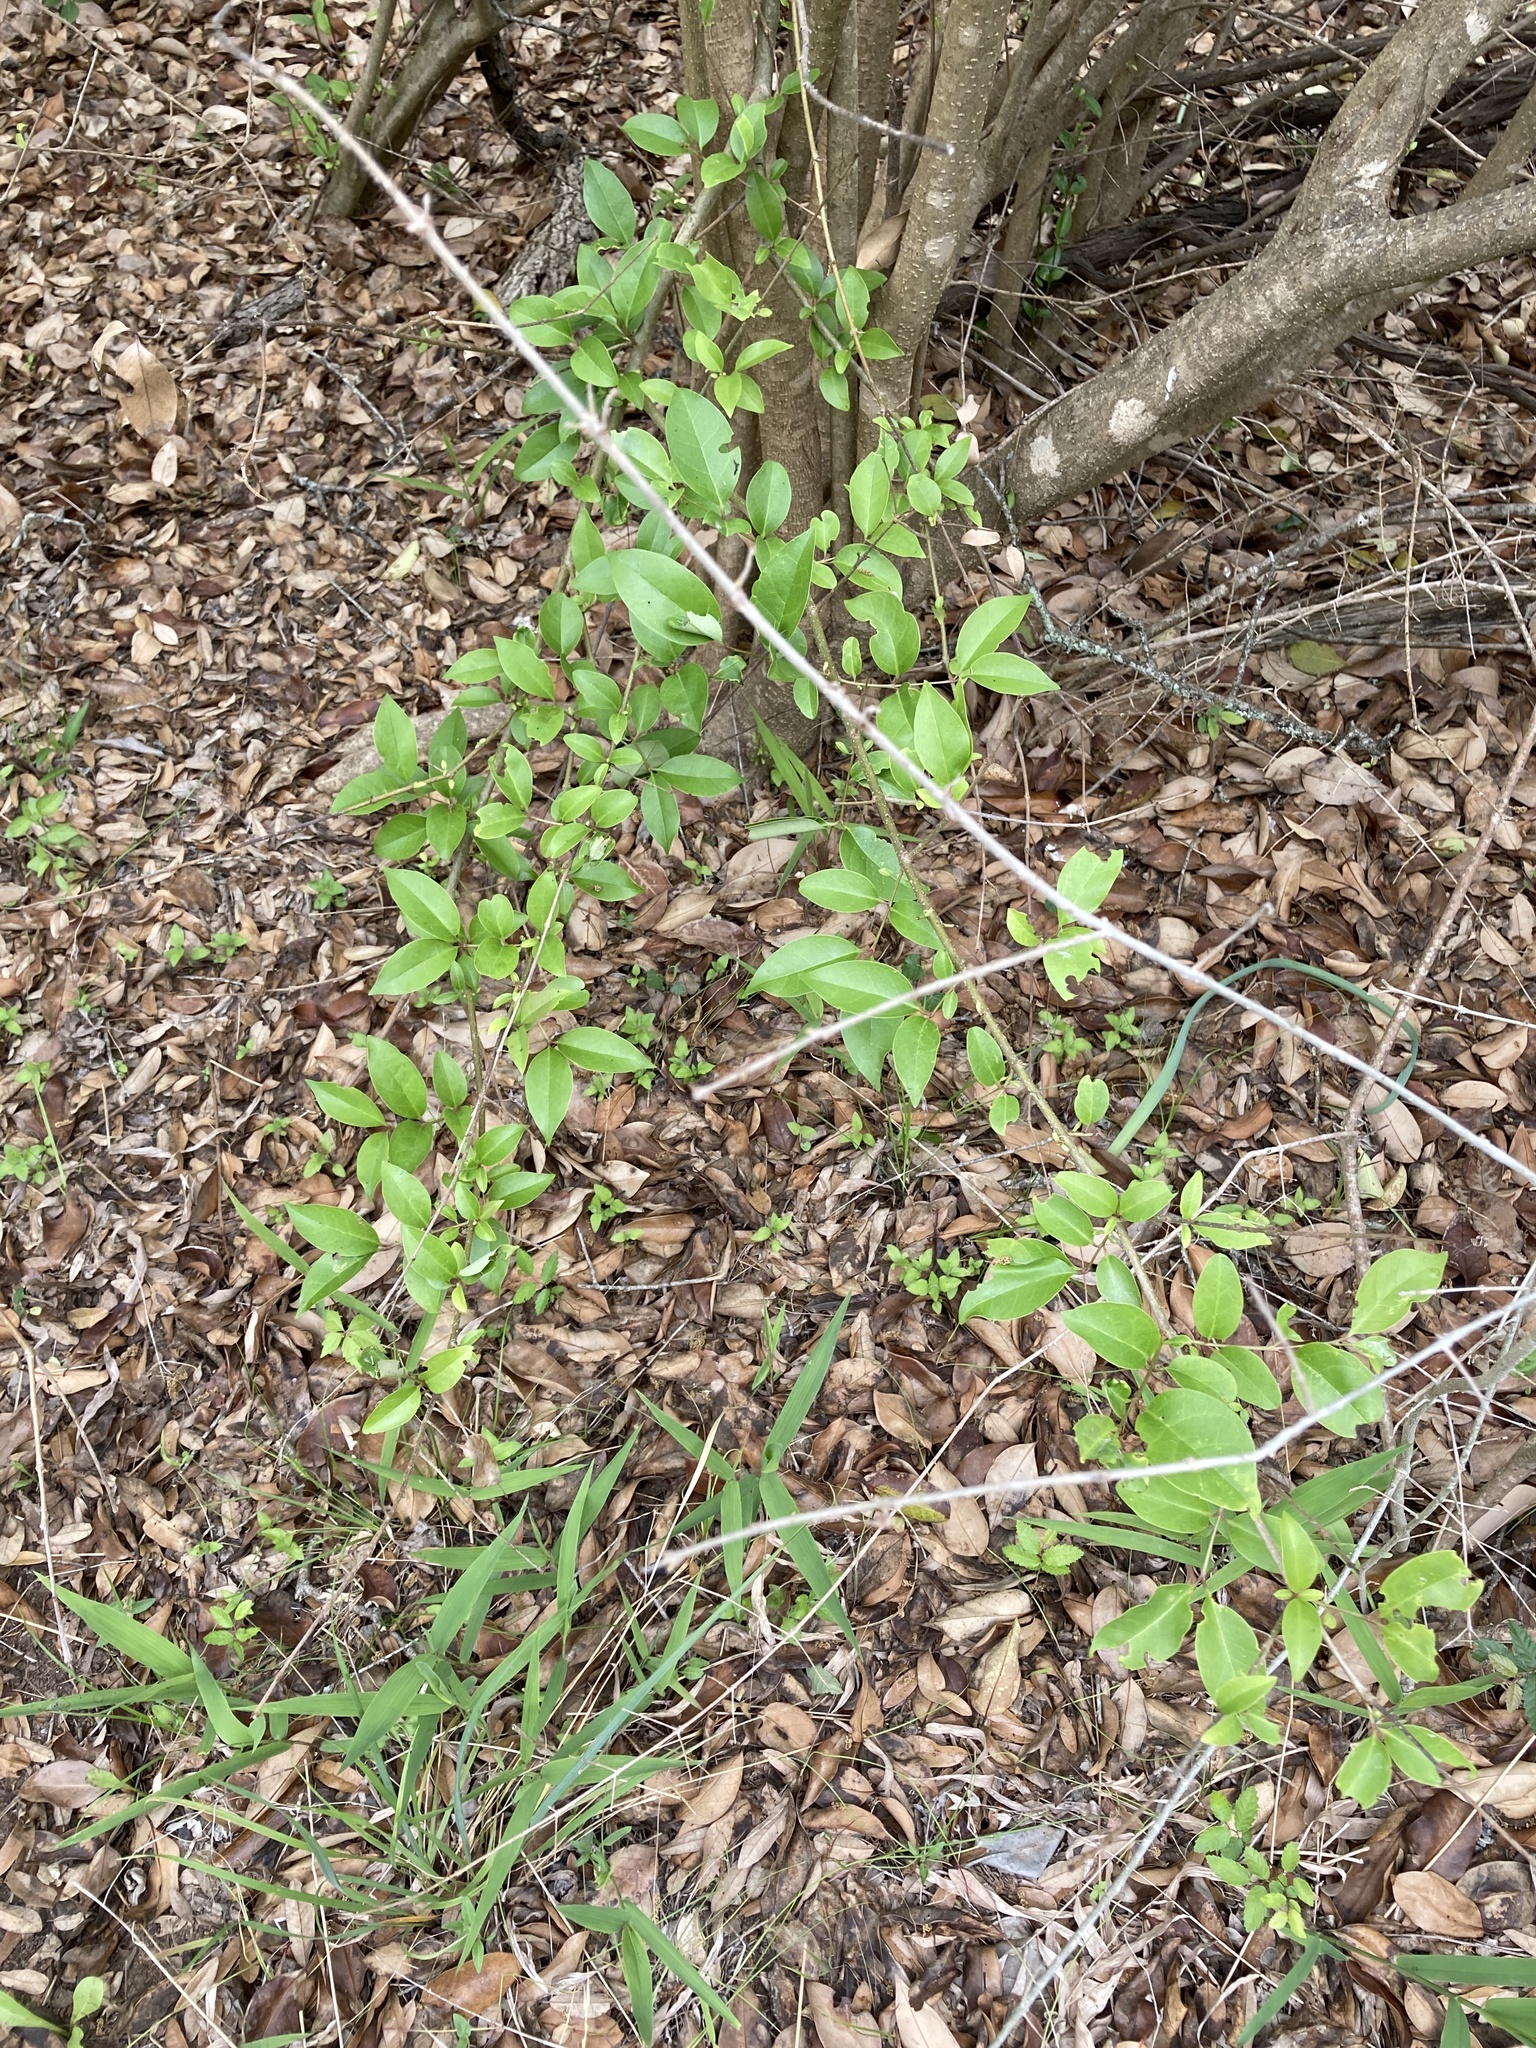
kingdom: Plantae
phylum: Tracheophyta
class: Magnoliopsida
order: Lamiales
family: Oleaceae
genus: Ligustrum
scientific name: Ligustrum lucidum
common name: Glossy privet
